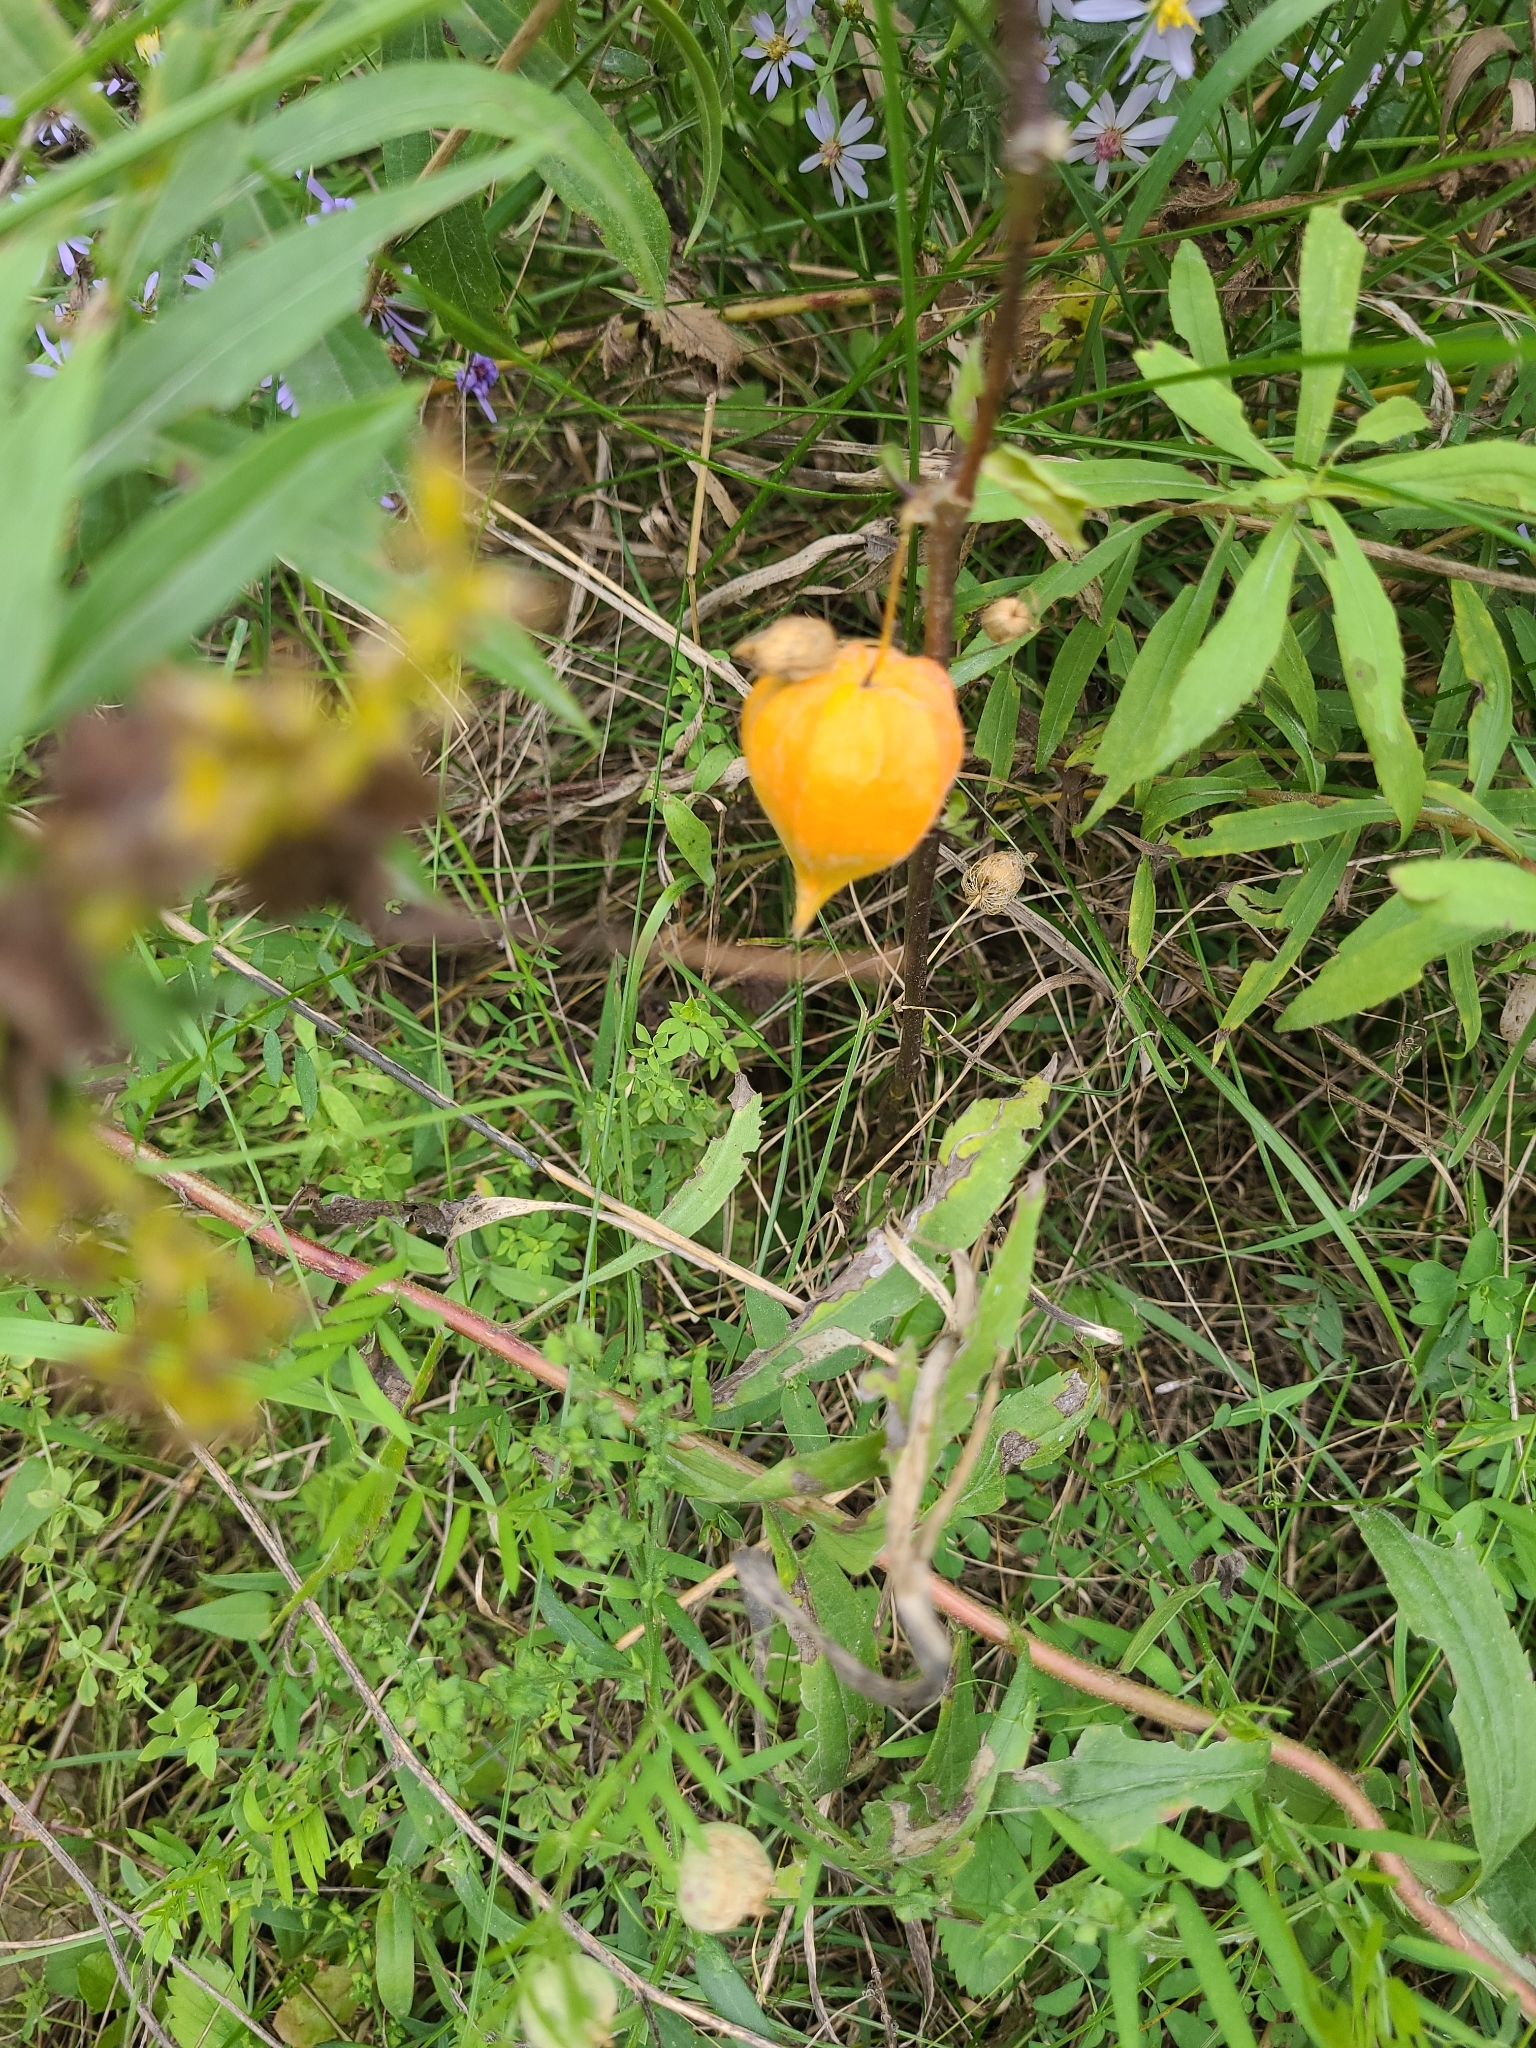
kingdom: Plantae
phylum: Tracheophyta
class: Magnoliopsida
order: Solanales
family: Solanaceae
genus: Alkekengi
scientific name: Alkekengi officinarum
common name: Japanese-lantern
